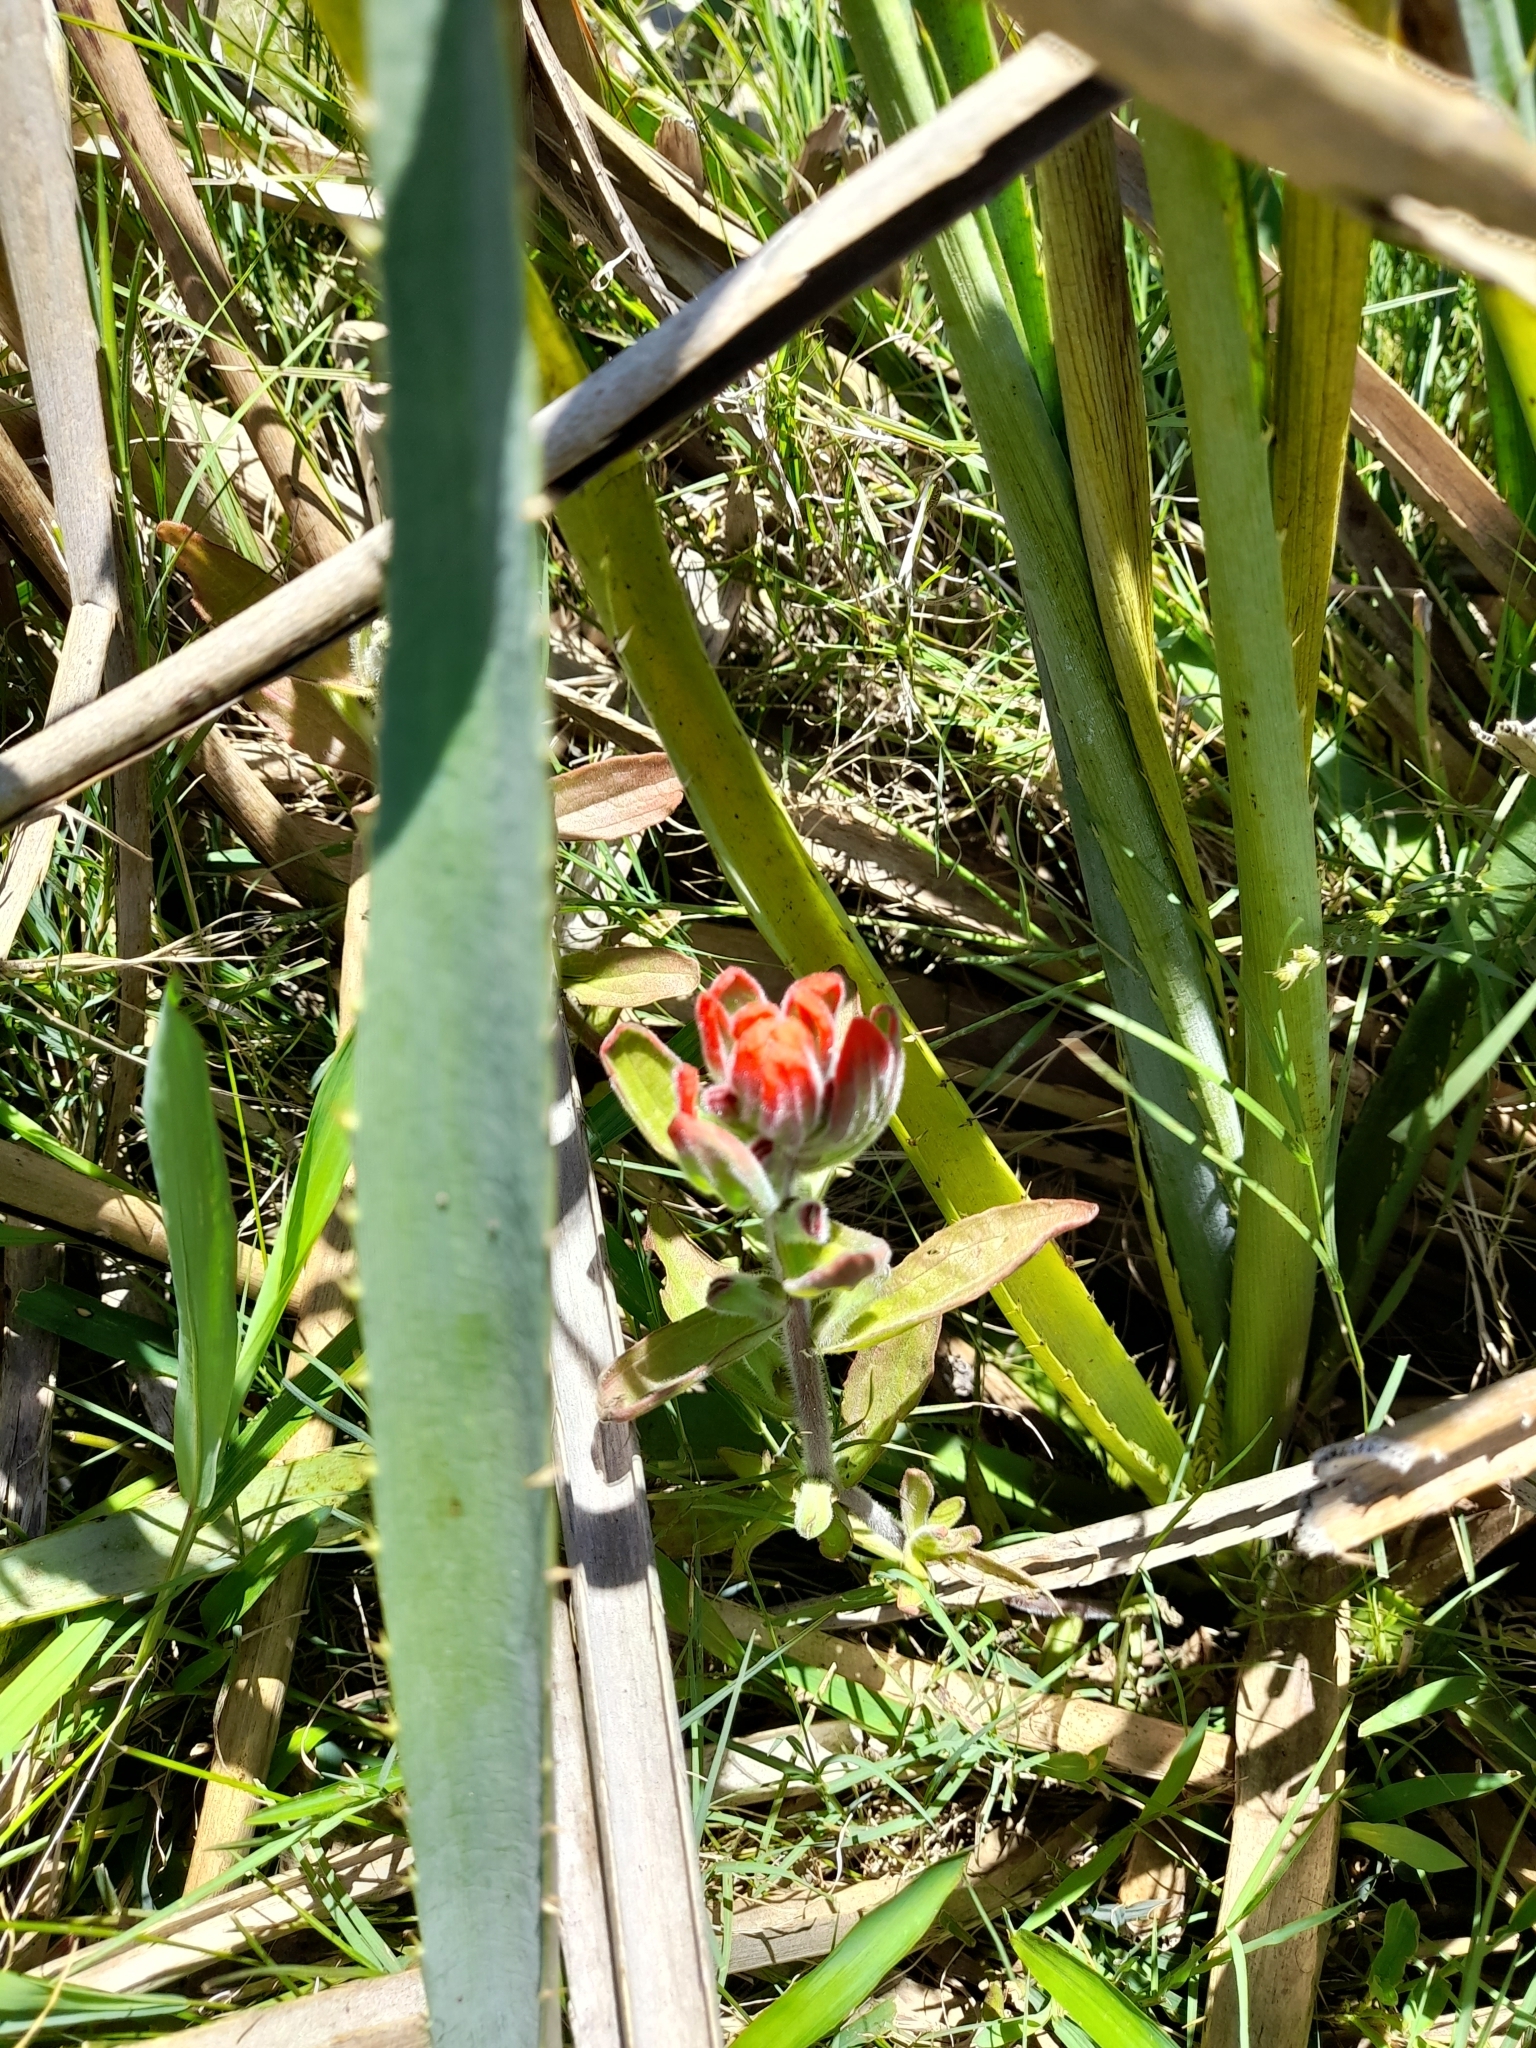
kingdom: Plantae
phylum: Tracheophyta
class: Magnoliopsida
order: Lamiales
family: Orobanchaceae
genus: Castilleja
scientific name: Castilleja arvensis
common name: Indian paintbrush
